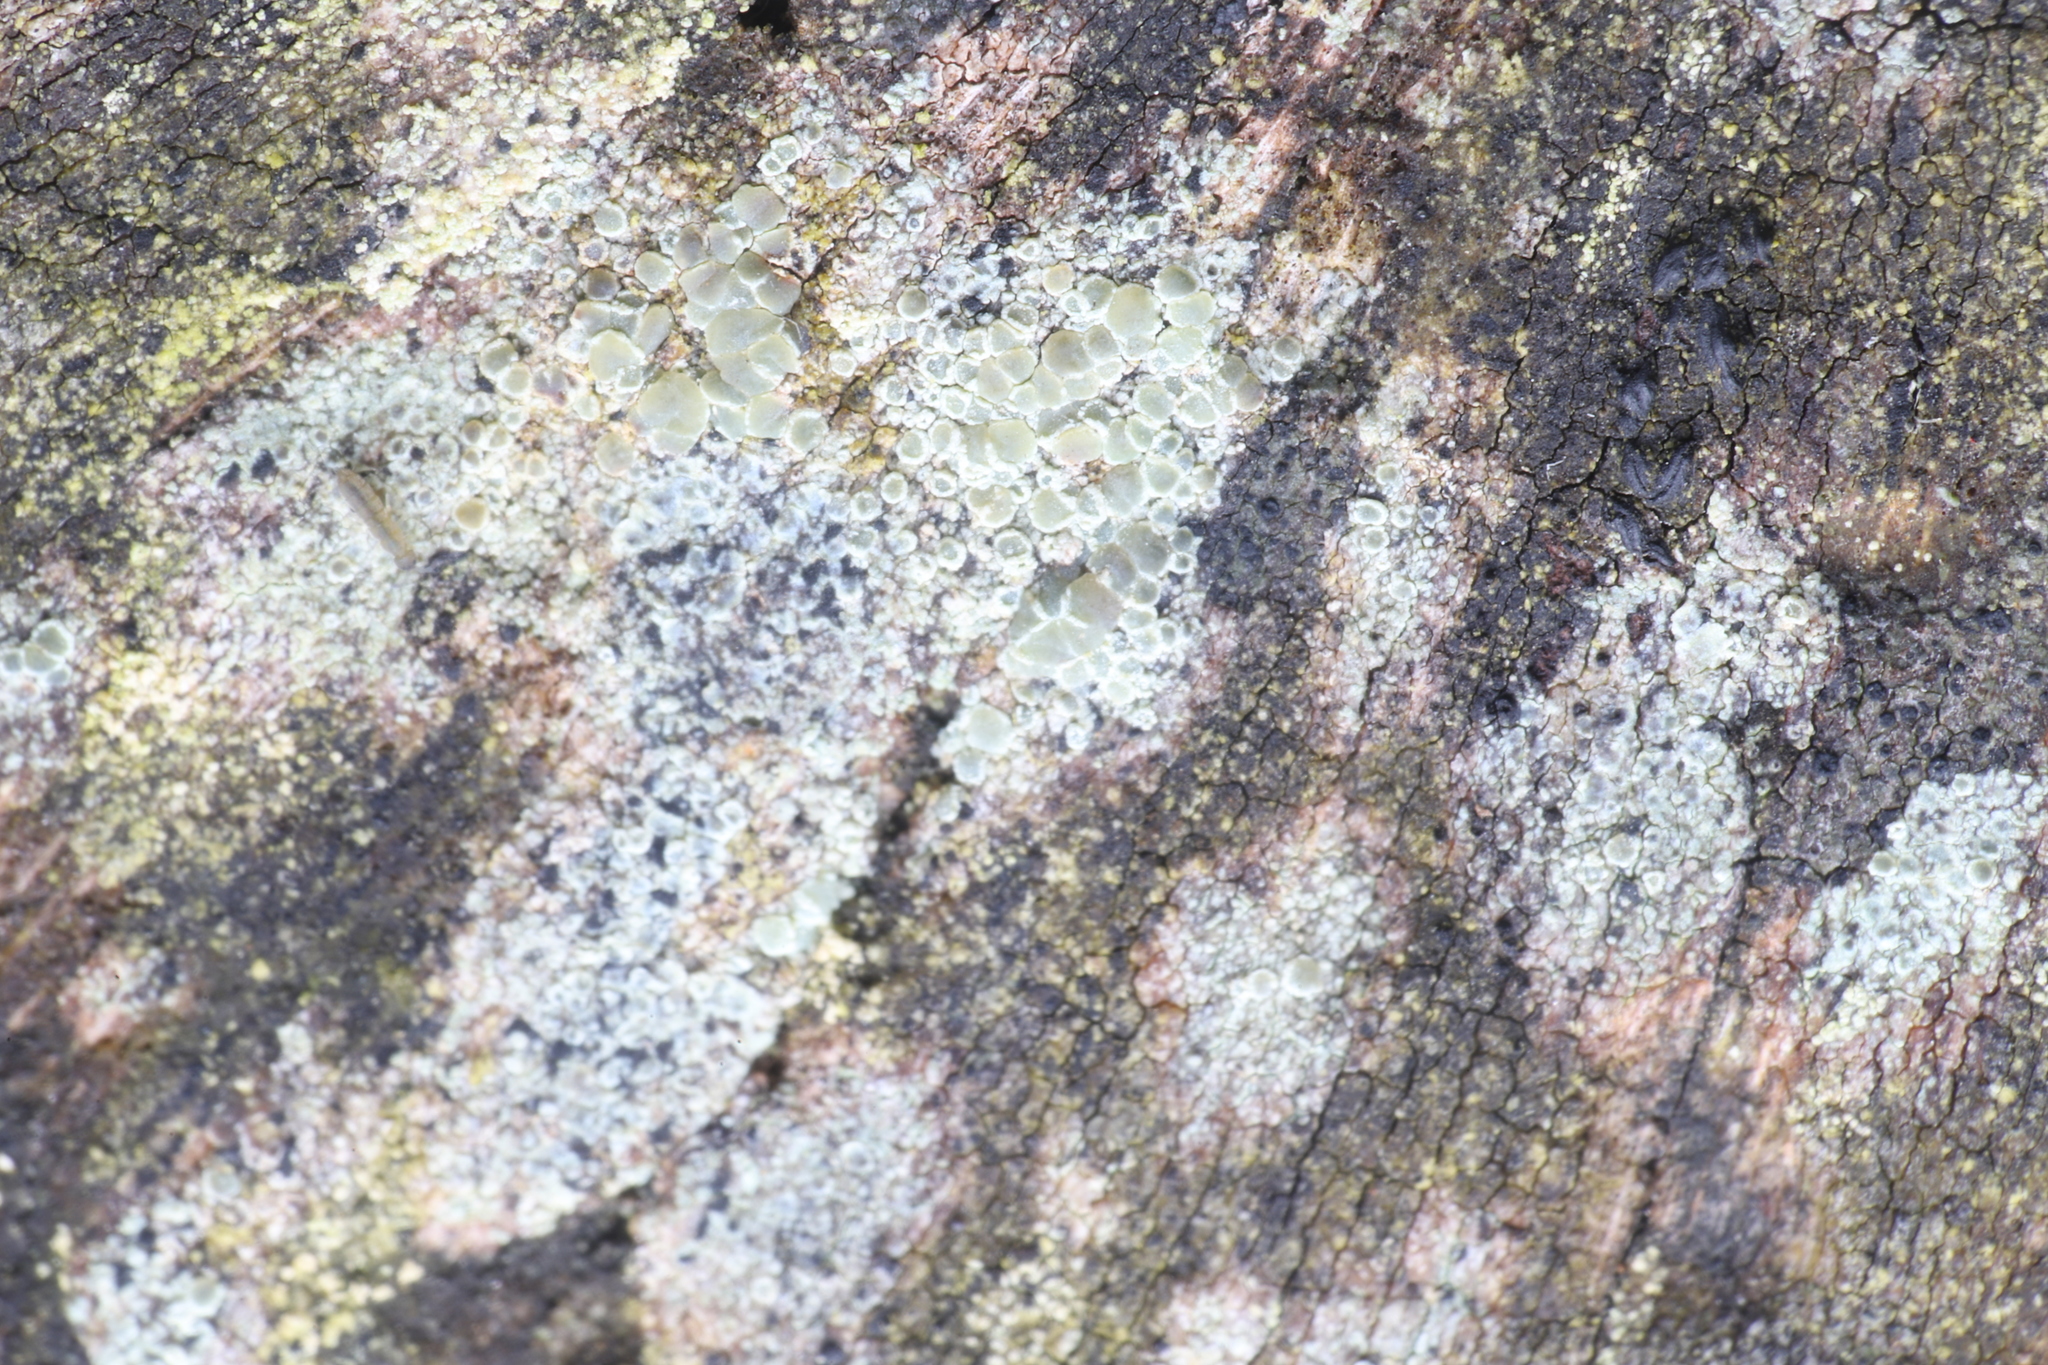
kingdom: Fungi
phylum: Ascomycota
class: Lecanoromycetes
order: Lecanorales
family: Lecanoraceae
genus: Lecanora
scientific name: Lecanora strobilina
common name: Mealy rim-lichen
